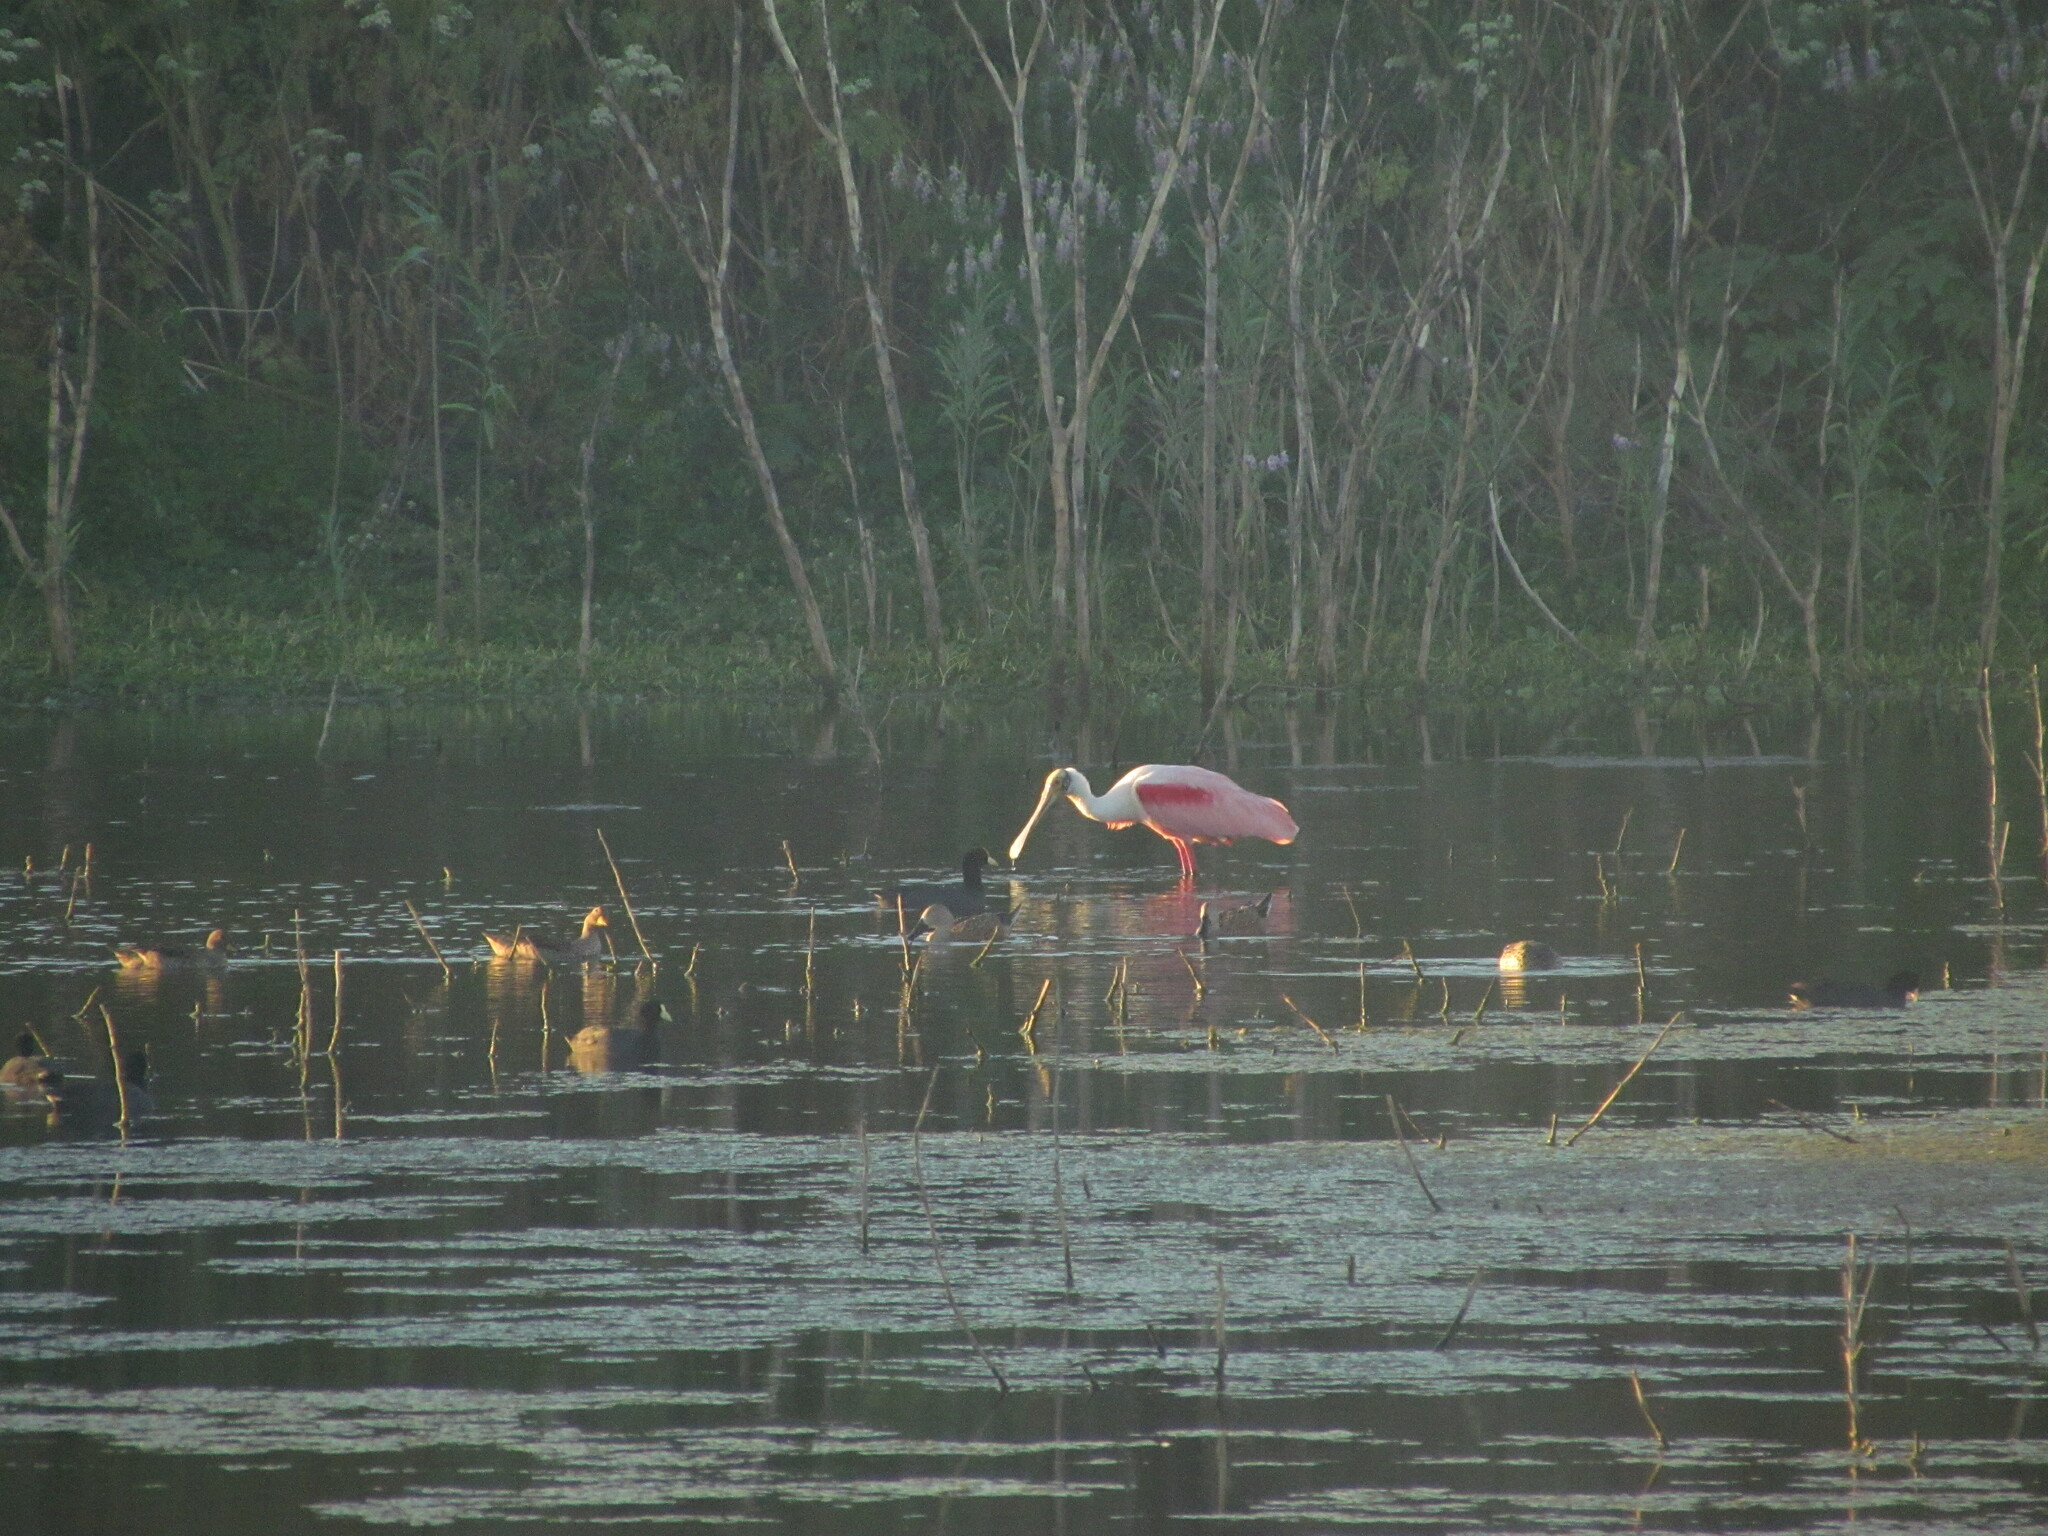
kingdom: Animalia
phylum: Chordata
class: Aves
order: Pelecaniformes
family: Threskiornithidae
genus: Platalea
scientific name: Platalea ajaja
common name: Roseate spoonbill
